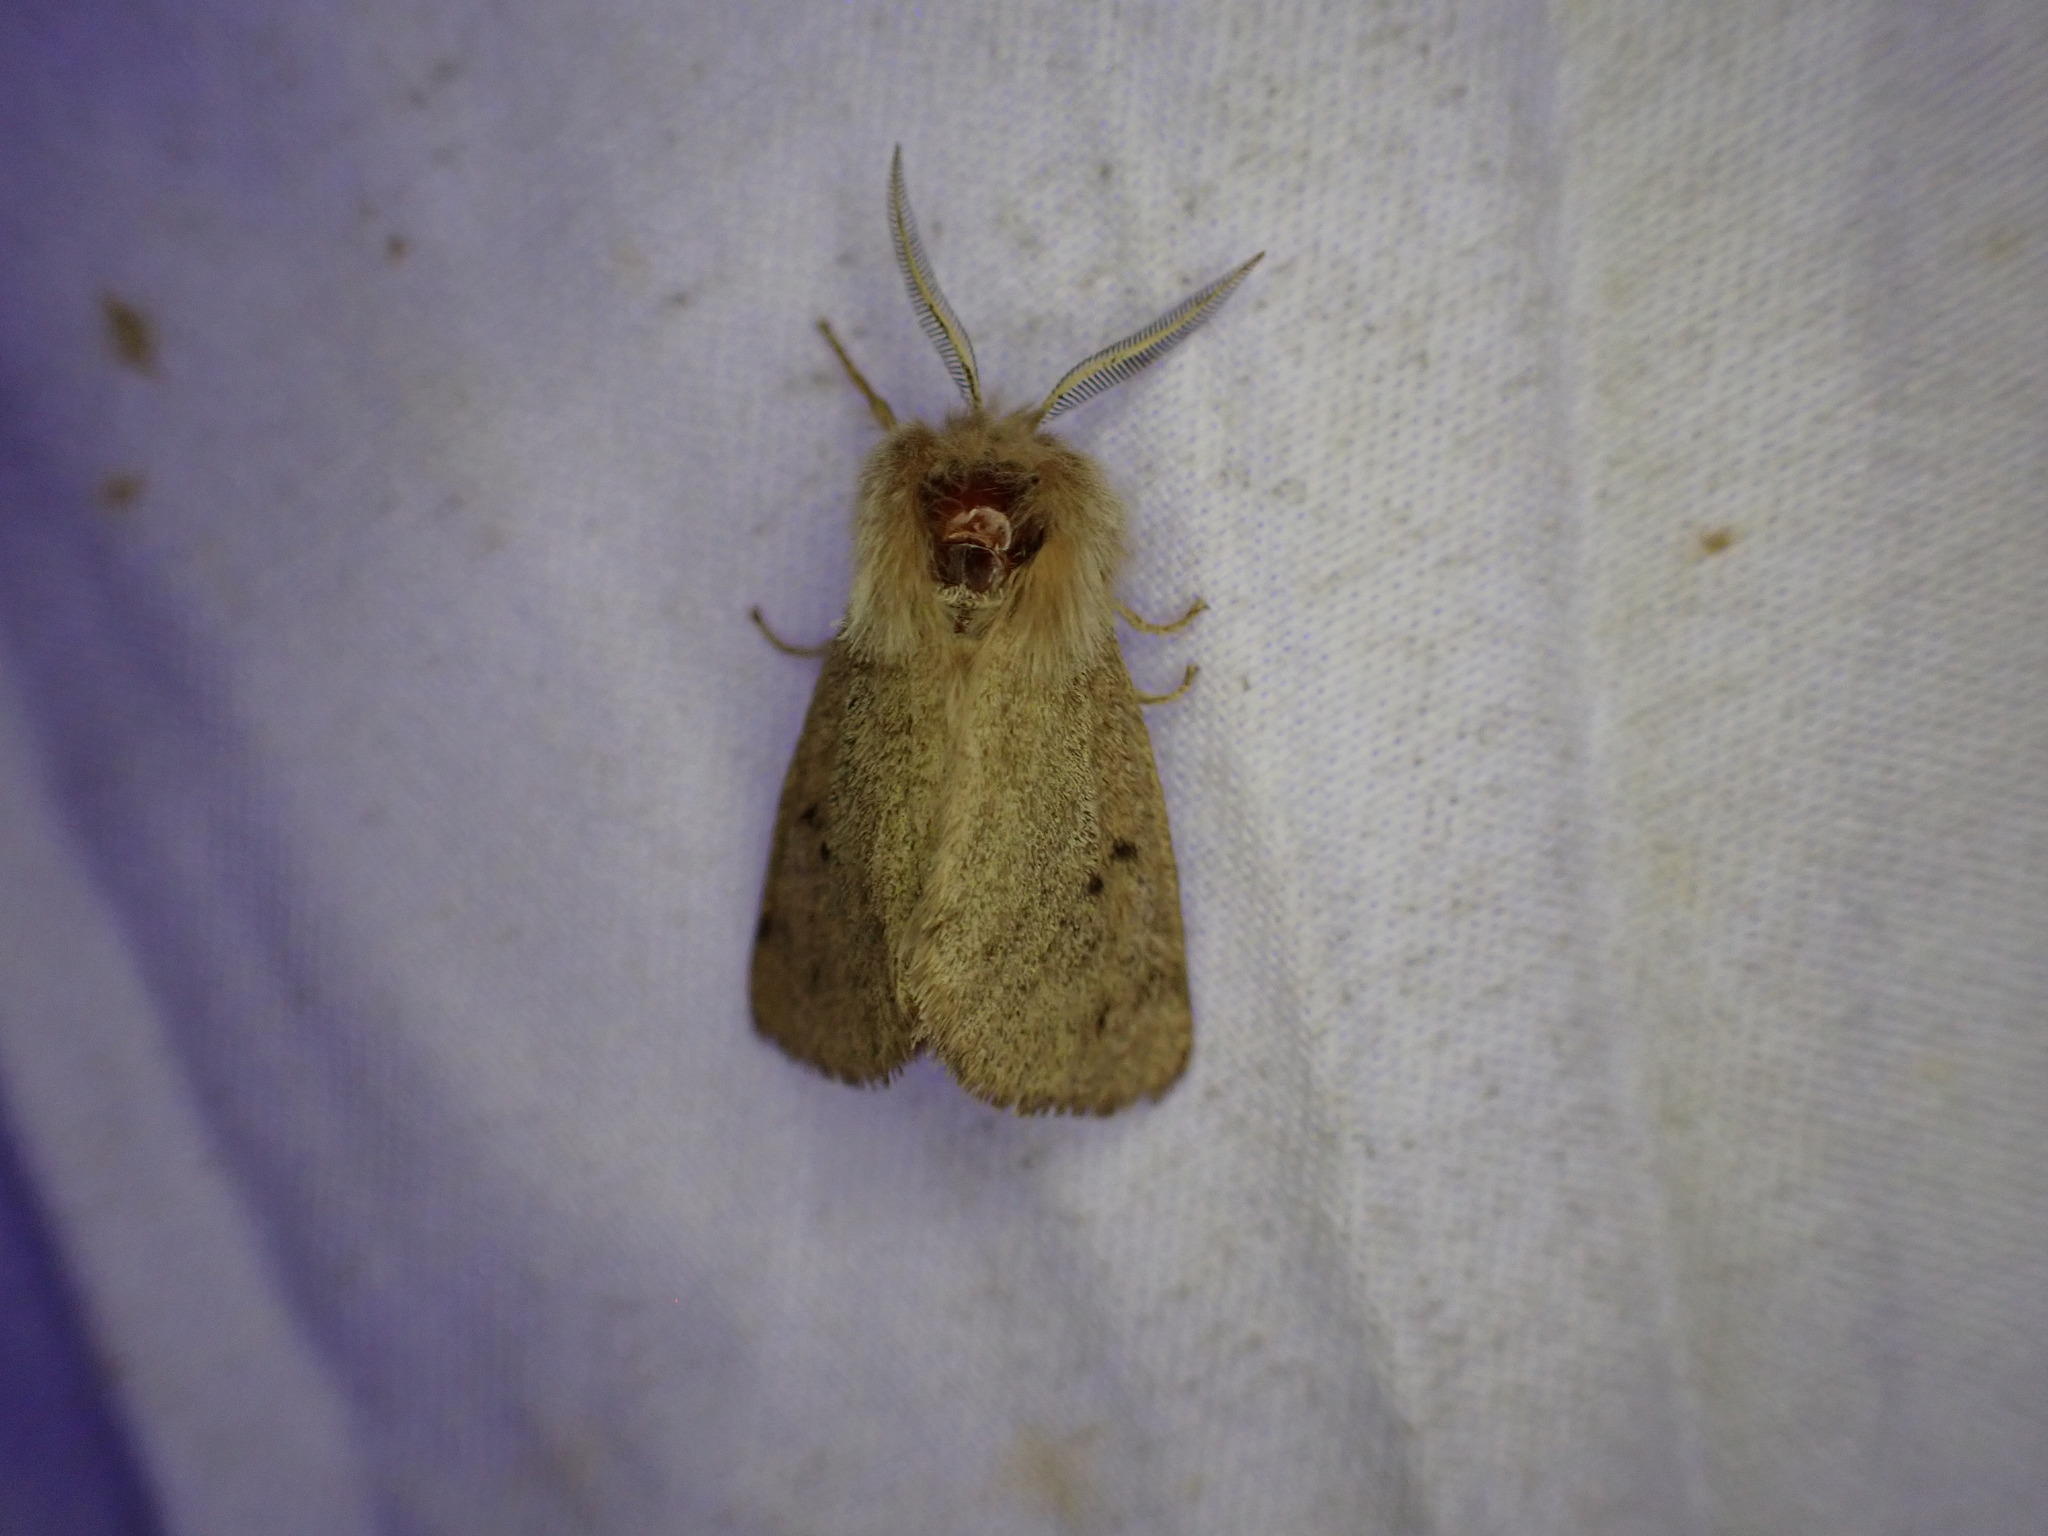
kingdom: Animalia
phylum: Arthropoda
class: Insecta
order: Lepidoptera
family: Erebidae
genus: Spilosoma
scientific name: Spilosoma vagans
